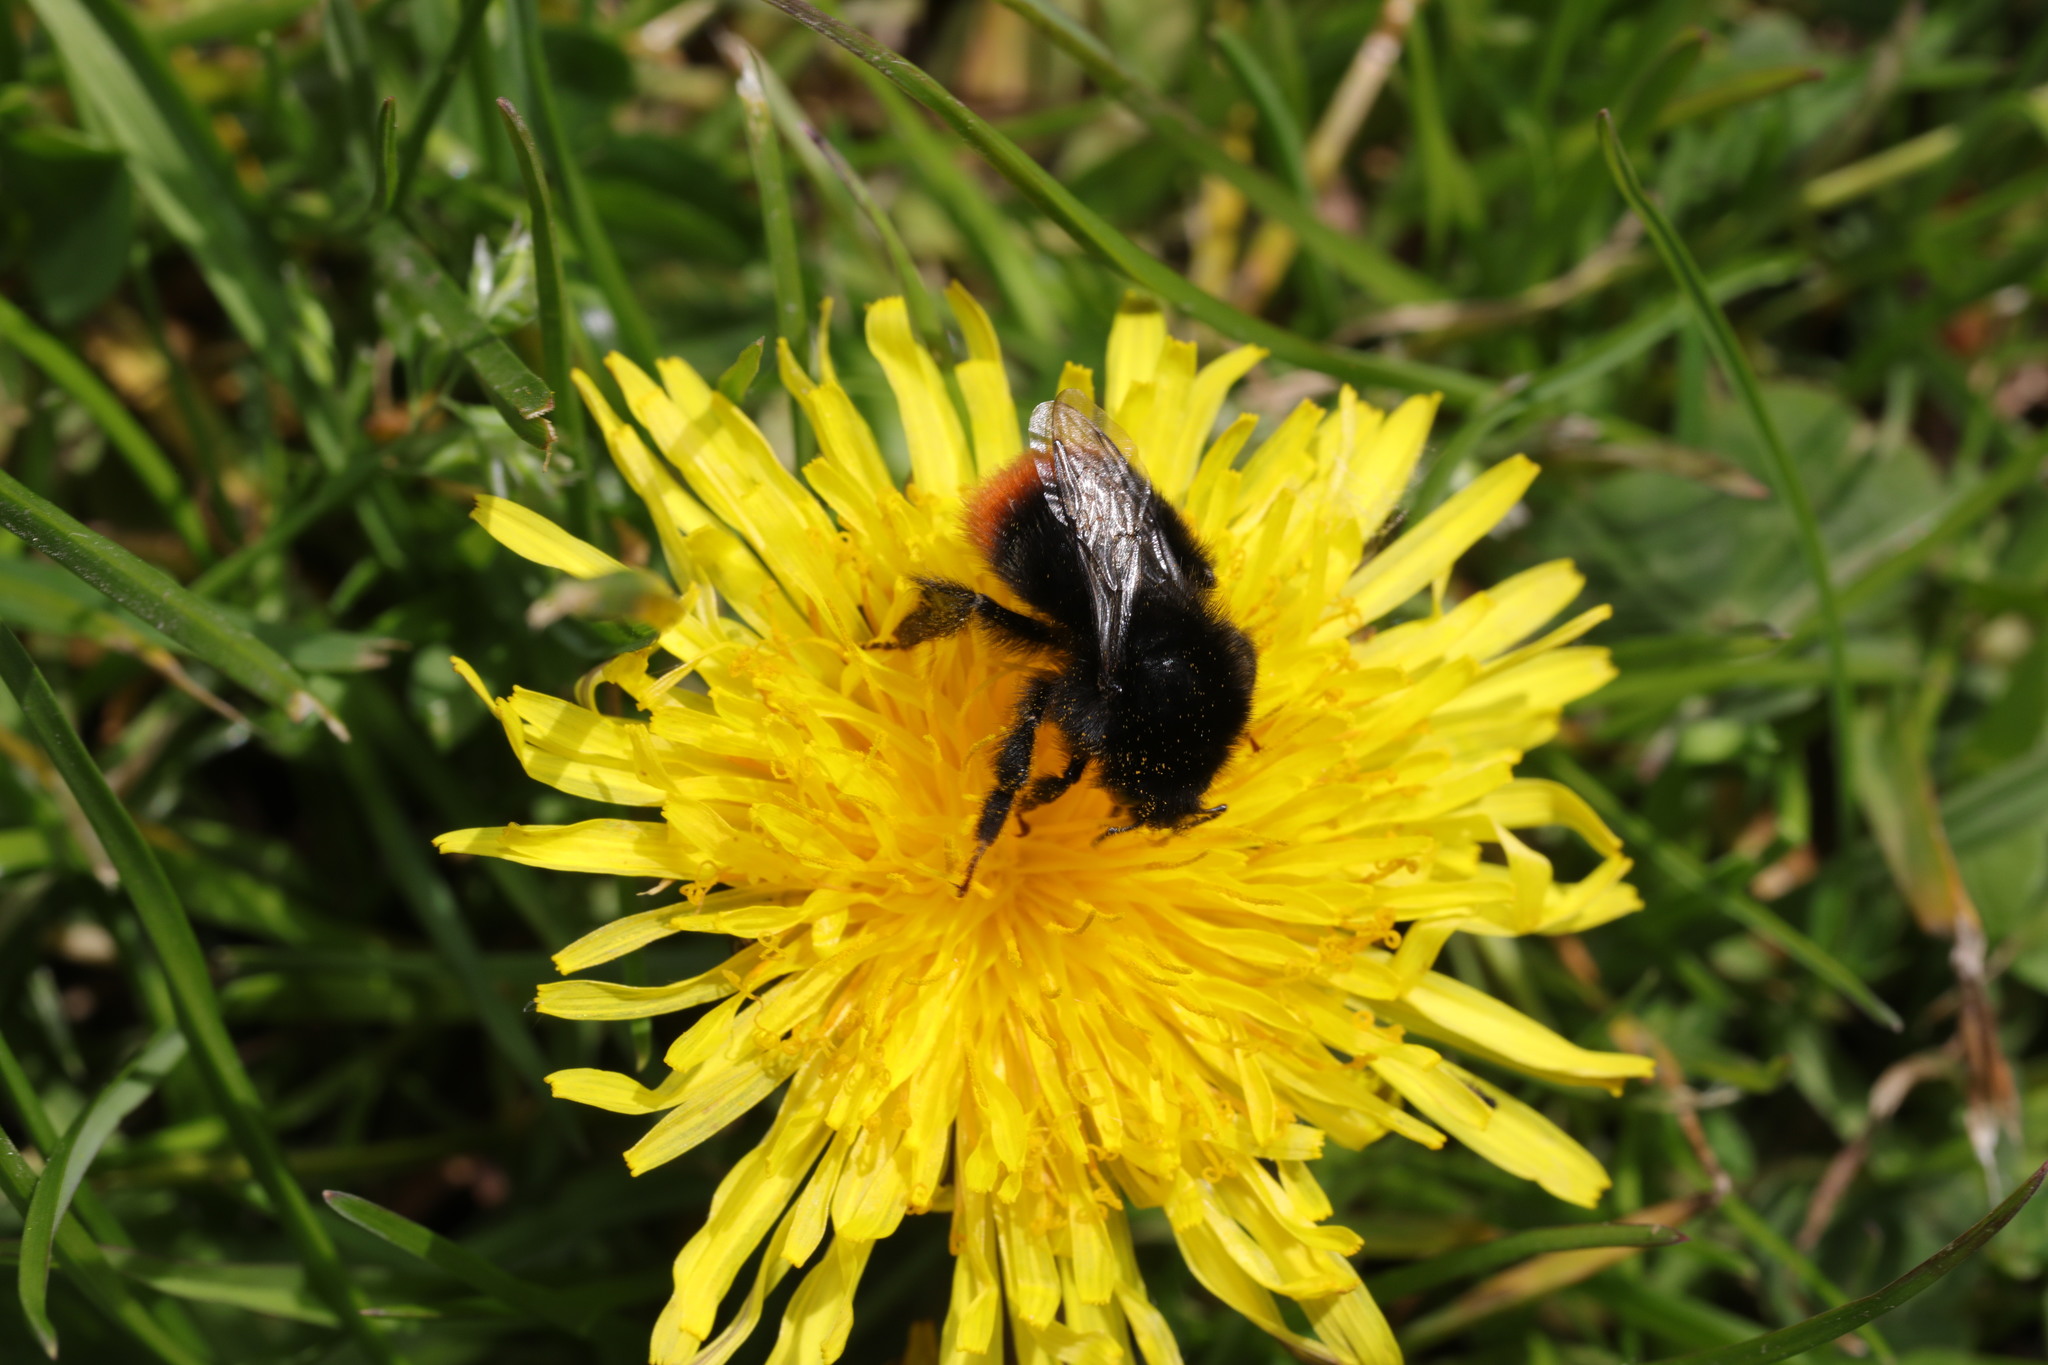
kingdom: Animalia
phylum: Arthropoda
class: Insecta
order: Hymenoptera
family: Apidae
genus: Bombus
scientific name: Bombus lapidarius
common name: Large red-tailed humble-bee
